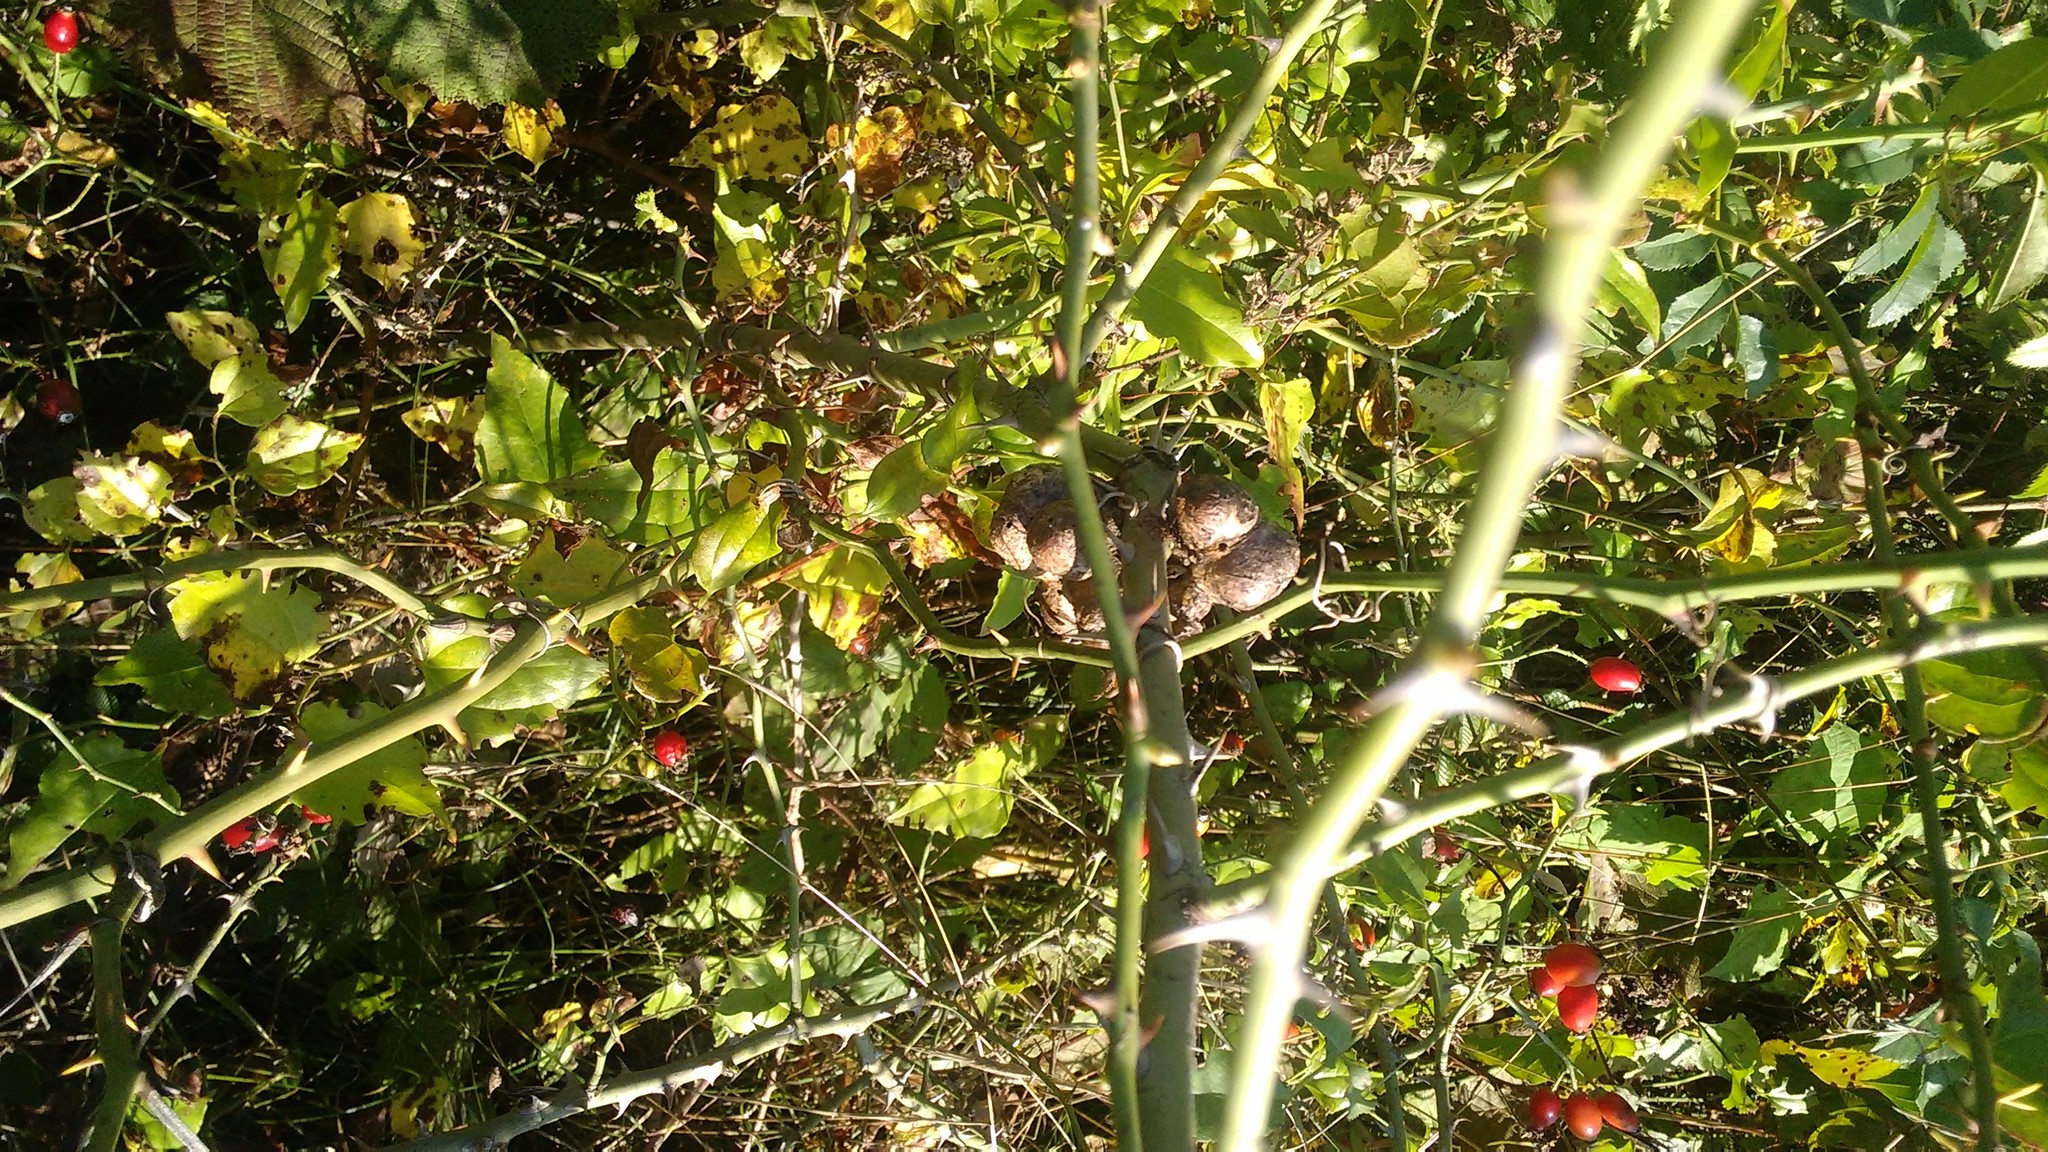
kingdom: Animalia
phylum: Arthropoda
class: Insecta
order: Hymenoptera
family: Cynipidae
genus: Diplolepis
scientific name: Diplolepis fructuum
